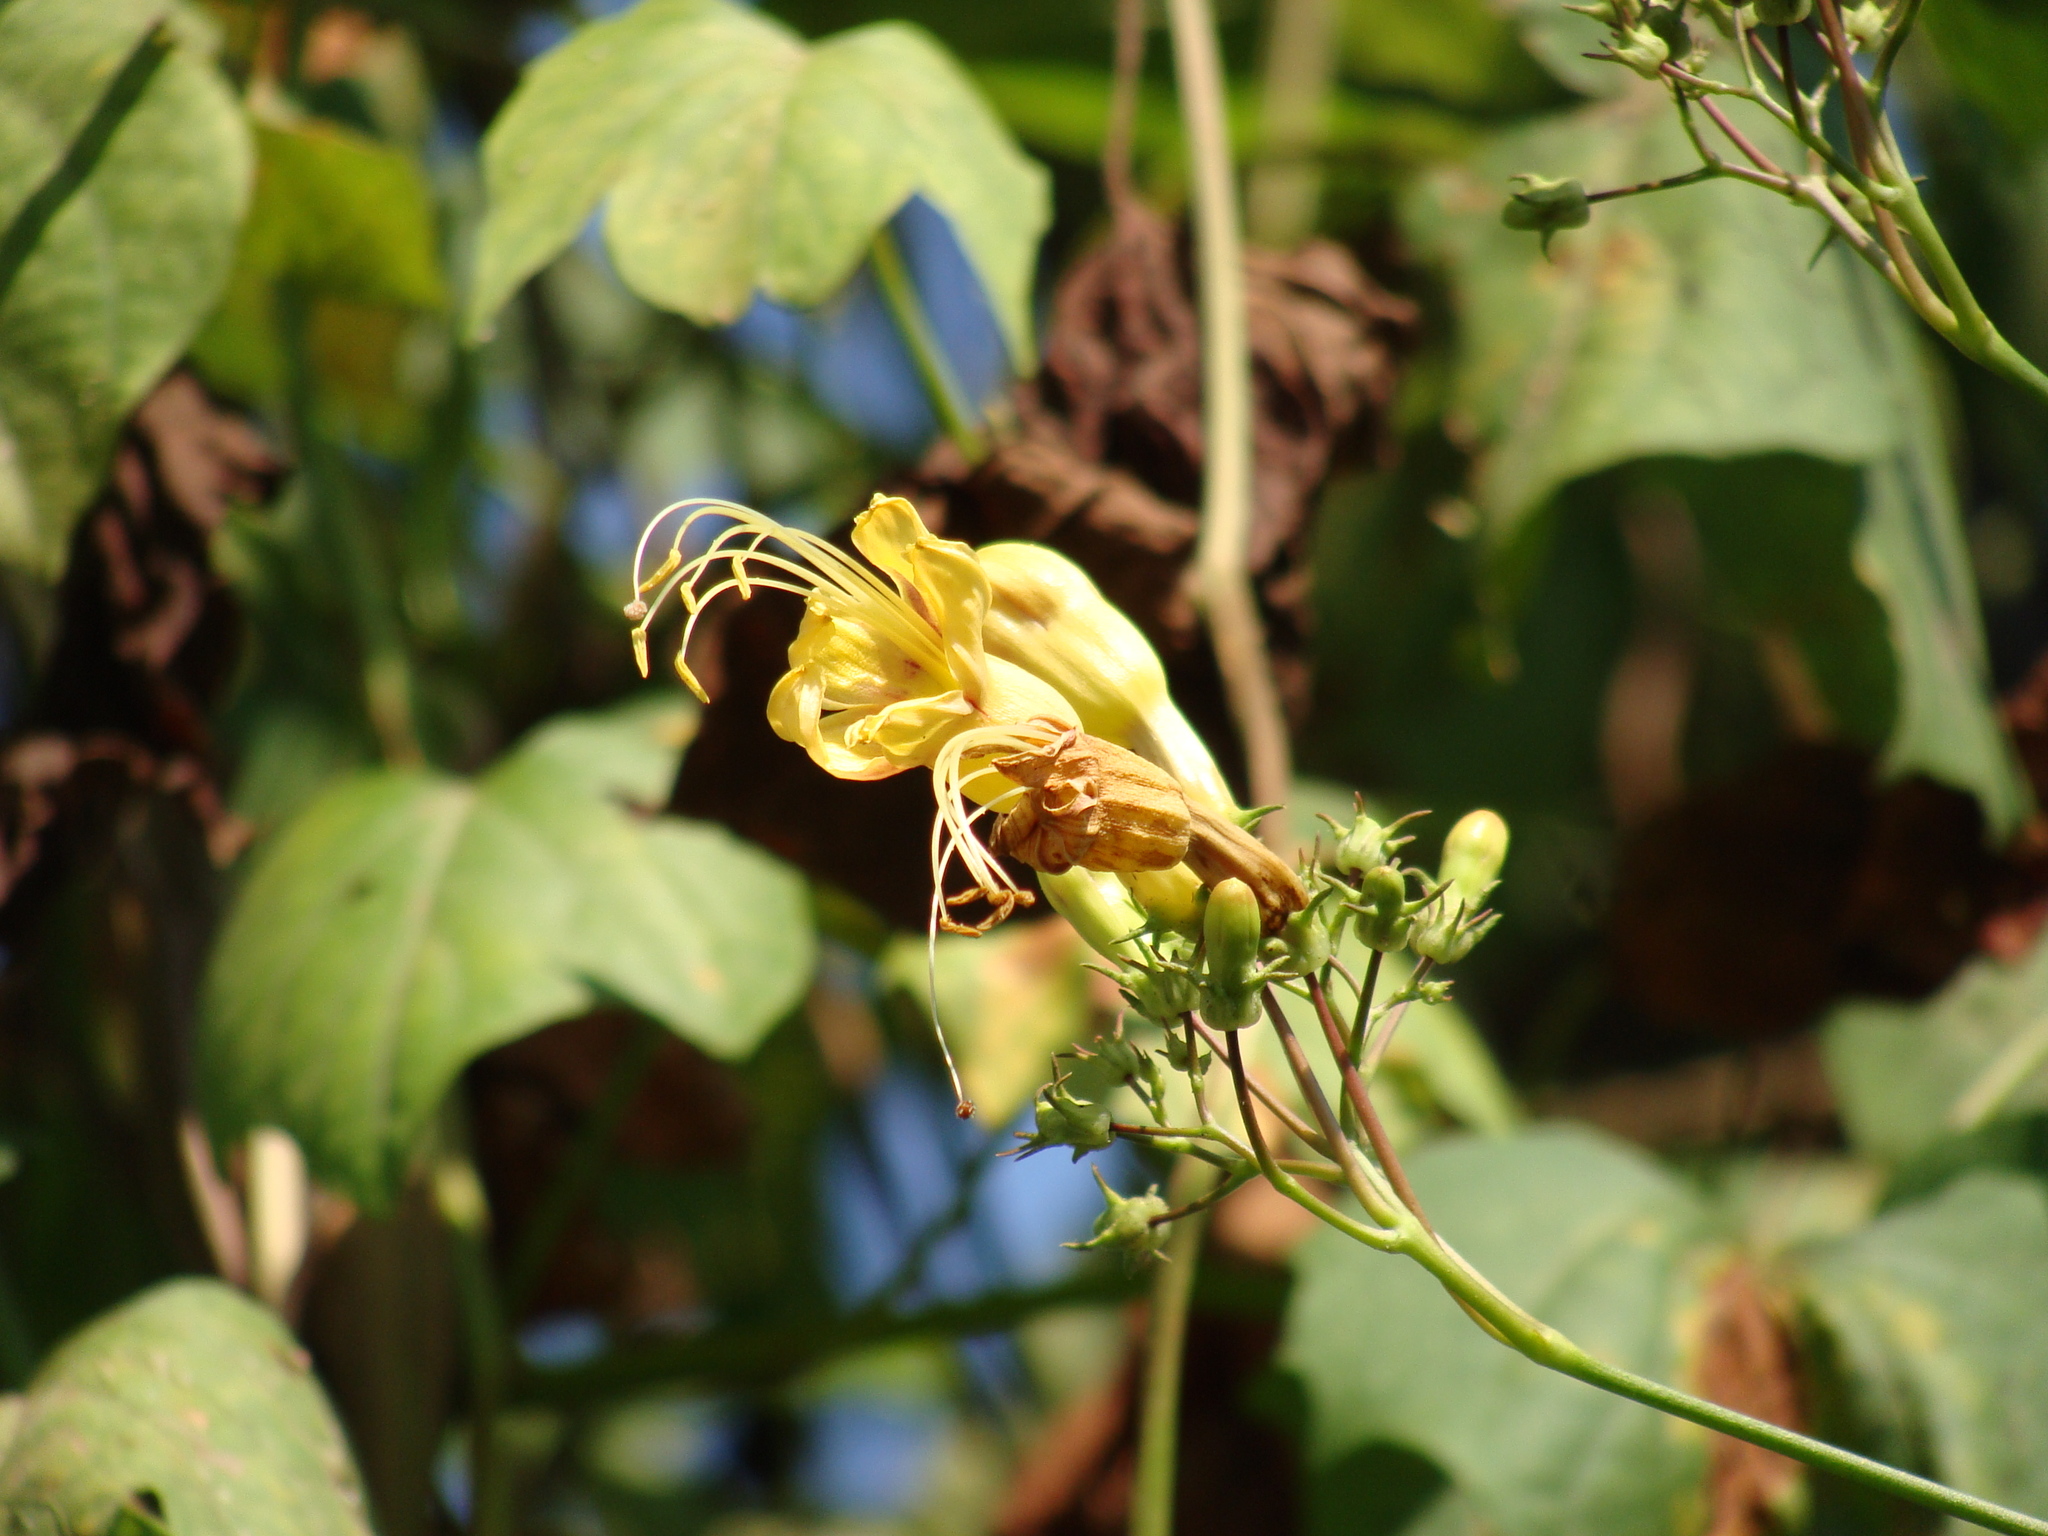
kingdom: Plantae
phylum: Tracheophyta
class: Magnoliopsida
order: Solanales
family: Convolvulaceae
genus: Ipomoea
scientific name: Ipomoea neei
